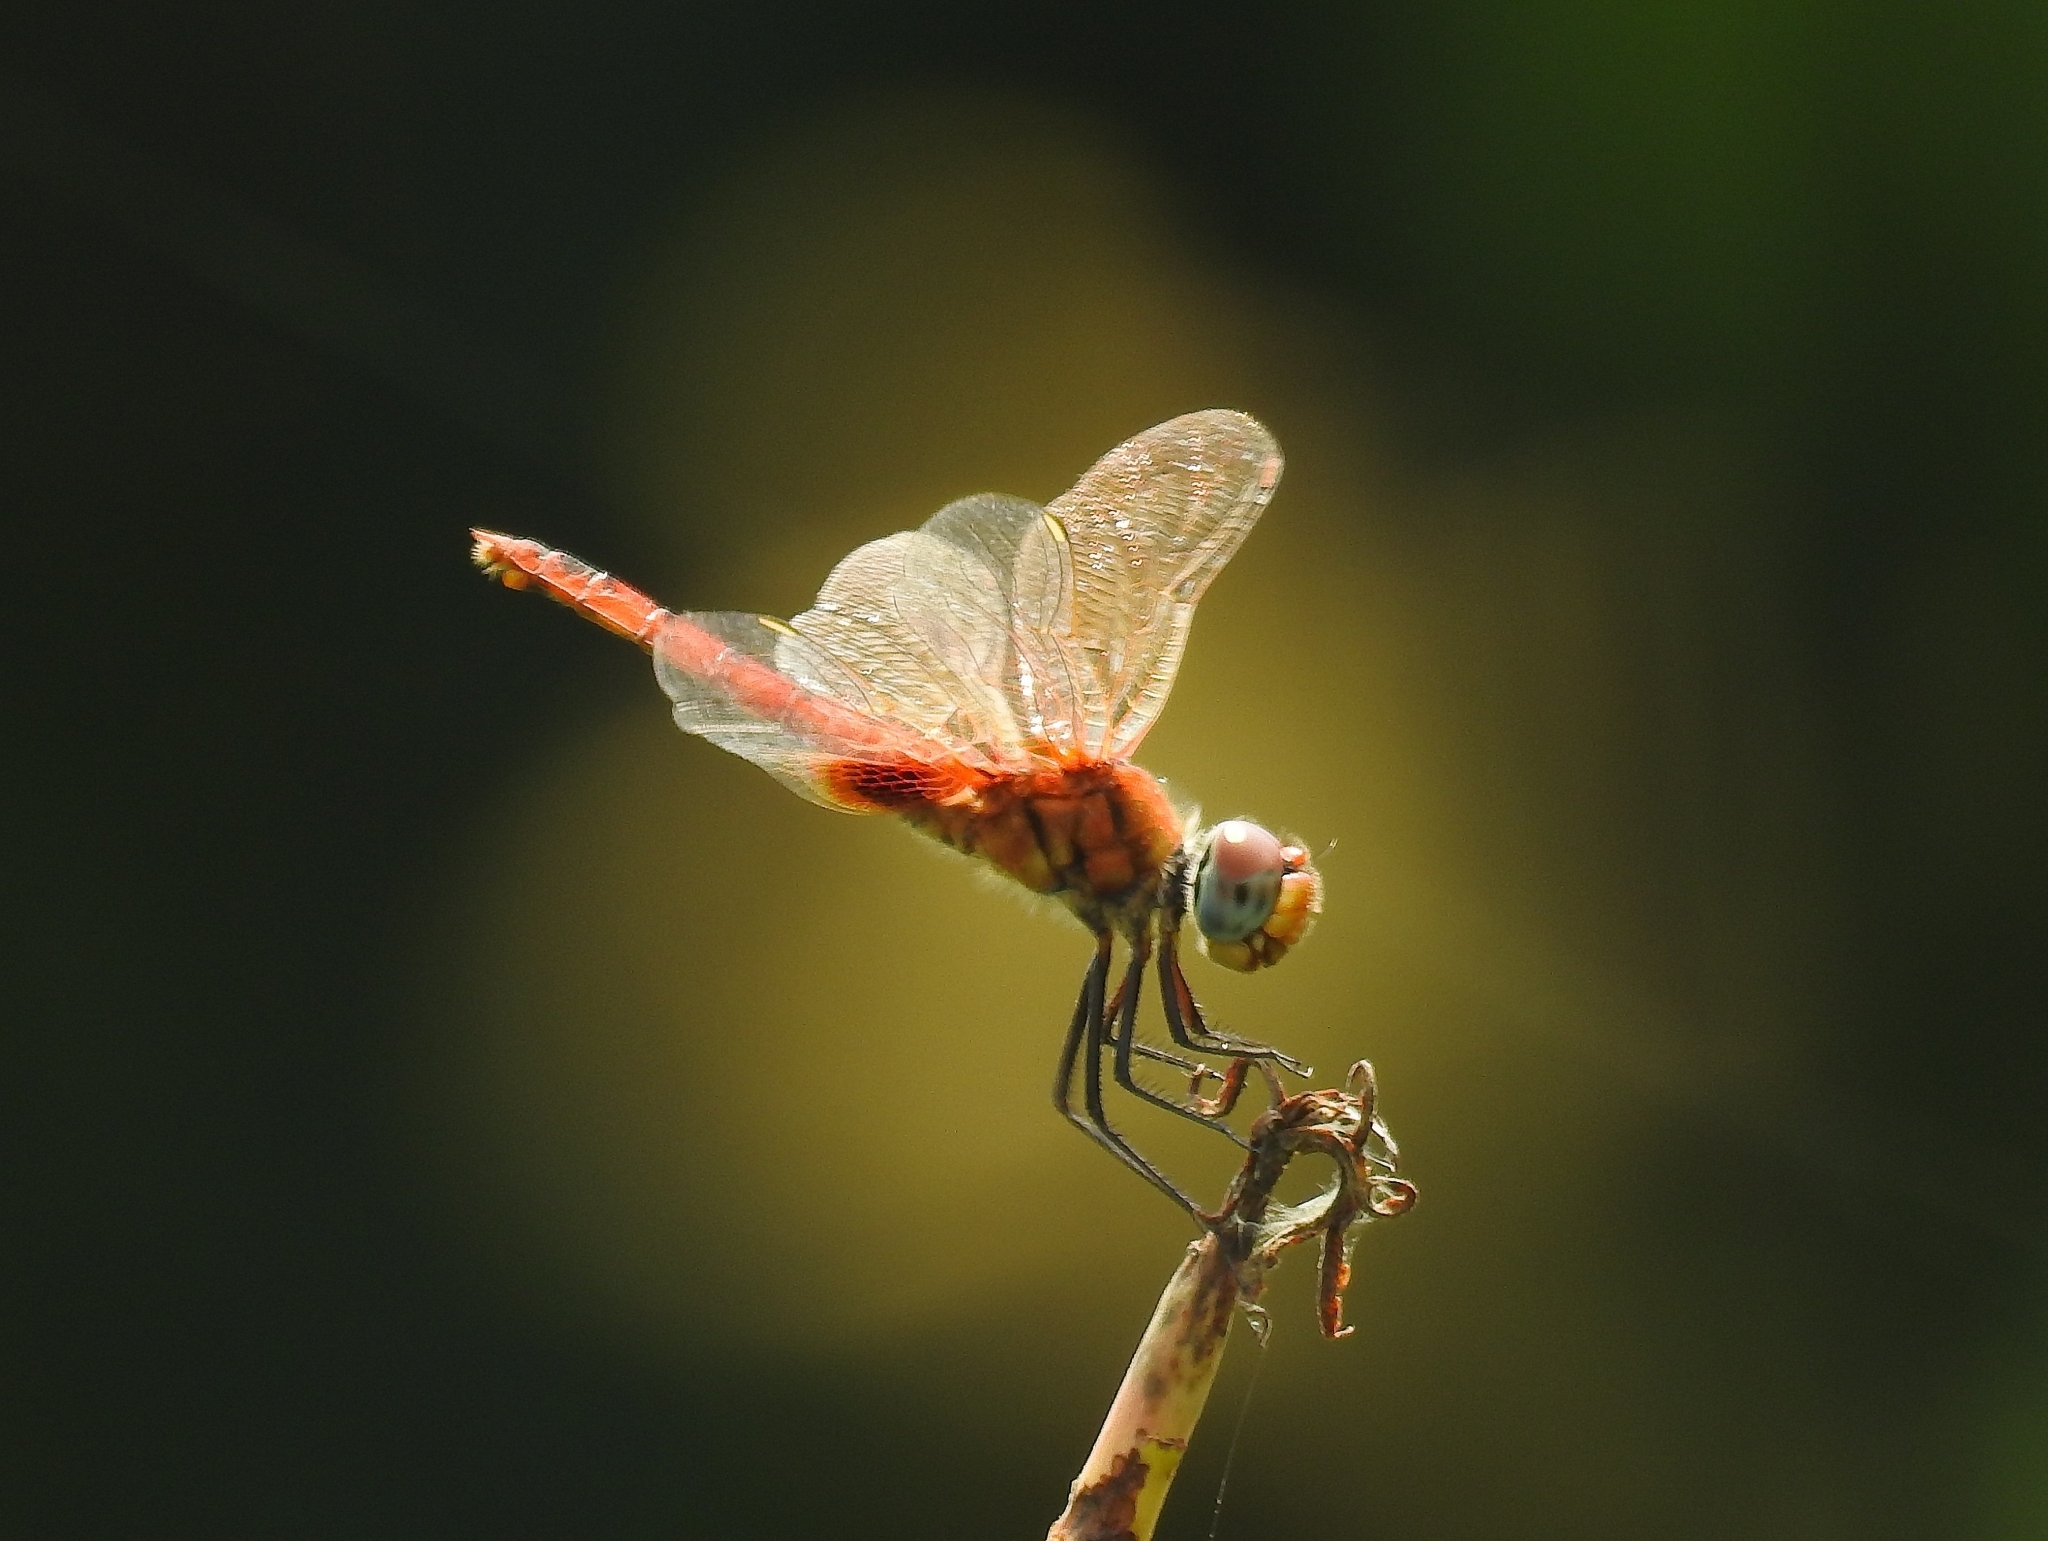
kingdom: Animalia
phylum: Arthropoda
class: Insecta
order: Odonata
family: Libellulidae
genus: Urothemis
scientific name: Urothemis signata
